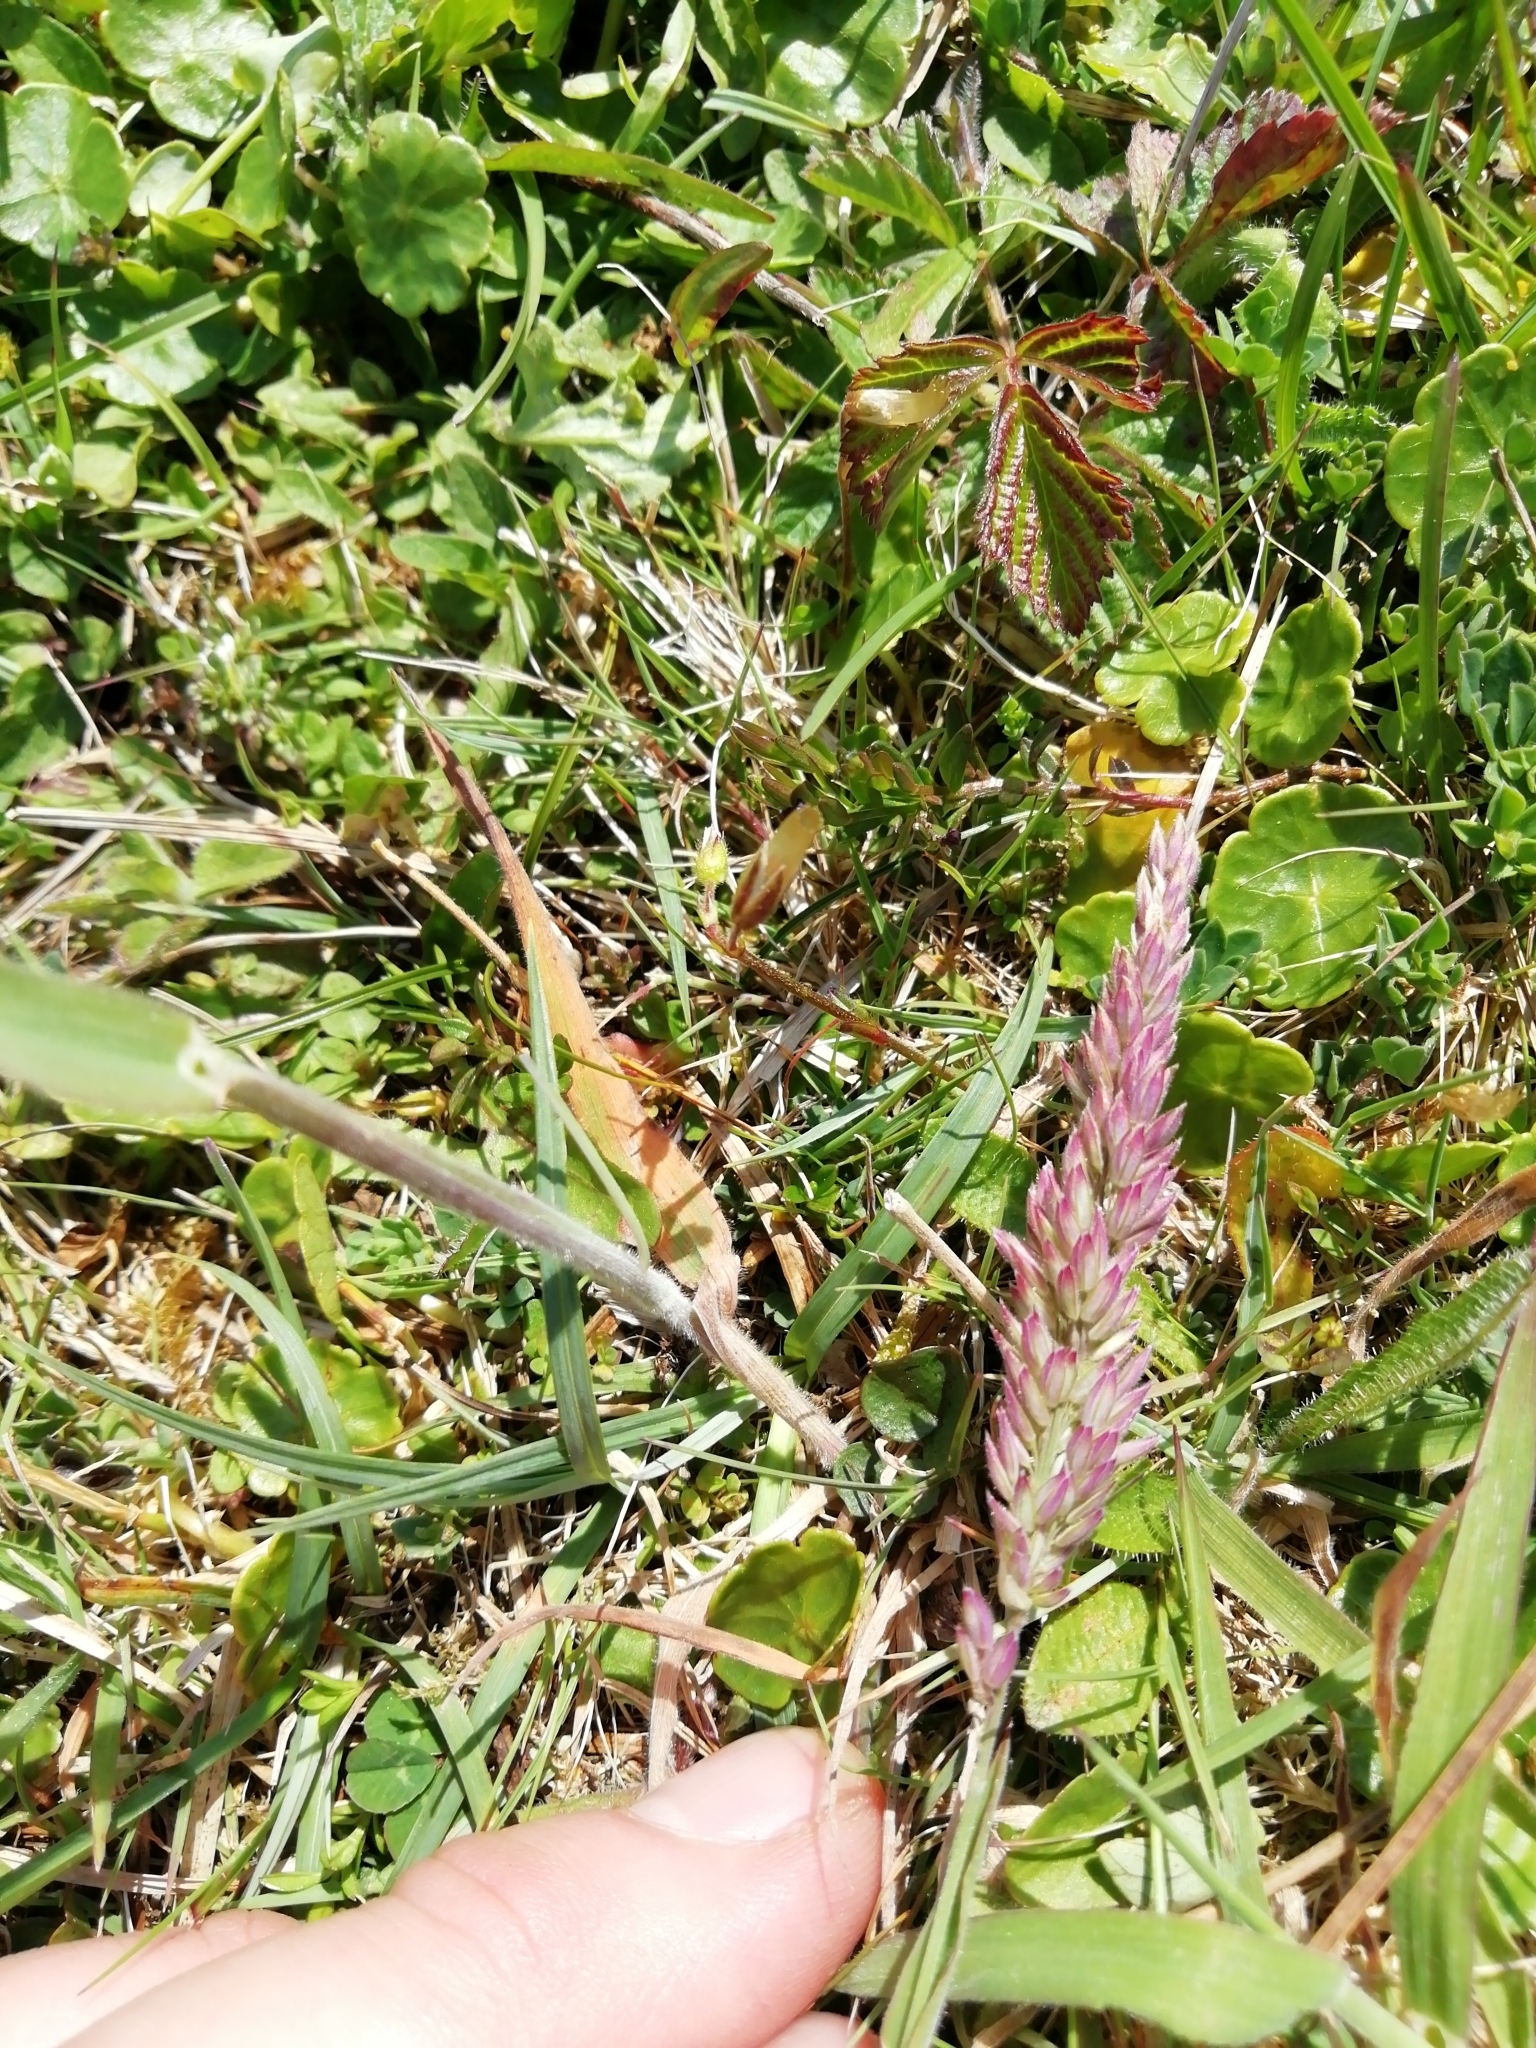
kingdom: Plantae
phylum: Tracheophyta
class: Liliopsida
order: Poales
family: Poaceae
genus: Holcus
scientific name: Holcus lanatus
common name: Yorkshire-fog
